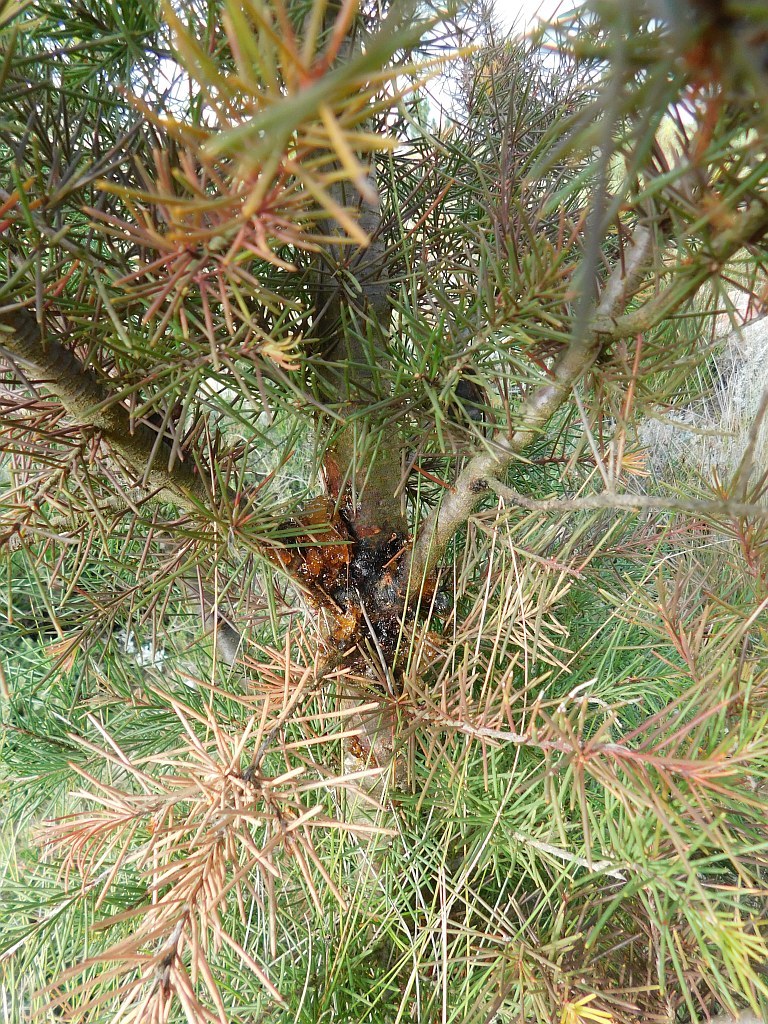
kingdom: Plantae
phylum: Tracheophyta
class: Magnoliopsida
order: Proteales
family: Proteaceae
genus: Hakea
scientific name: Hakea sericea
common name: Needle bush
